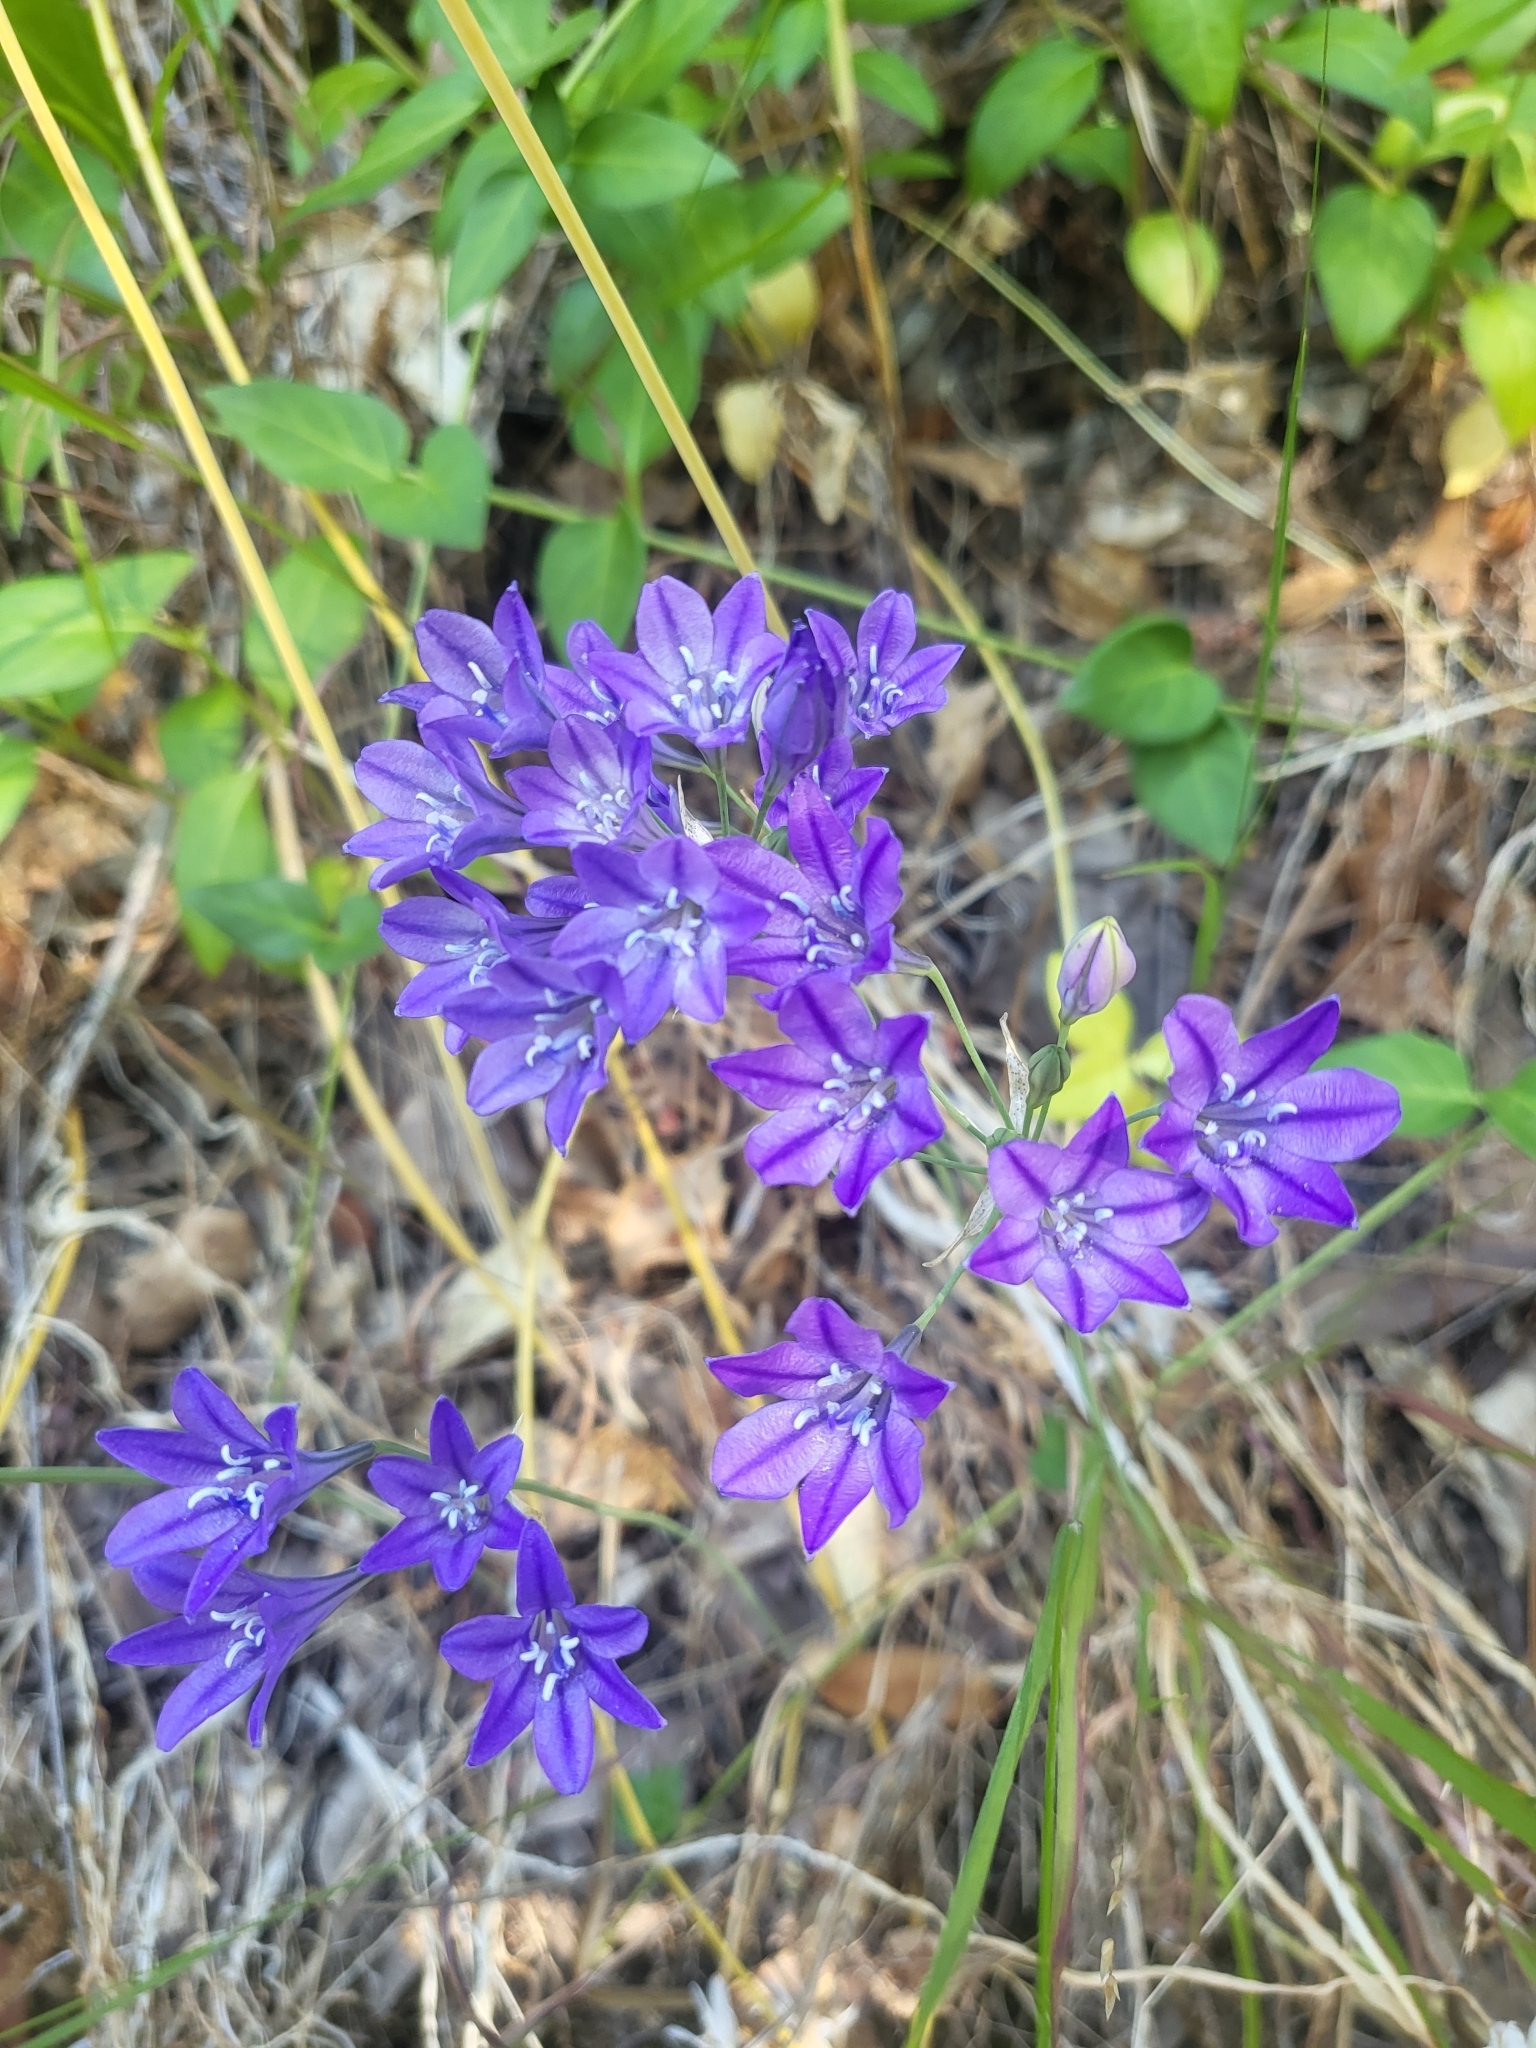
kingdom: Plantae
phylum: Tracheophyta
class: Liliopsida
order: Asparagales
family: Asparagaceae
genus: Triteleia
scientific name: Triteleia laxa
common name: Triplet-lily
